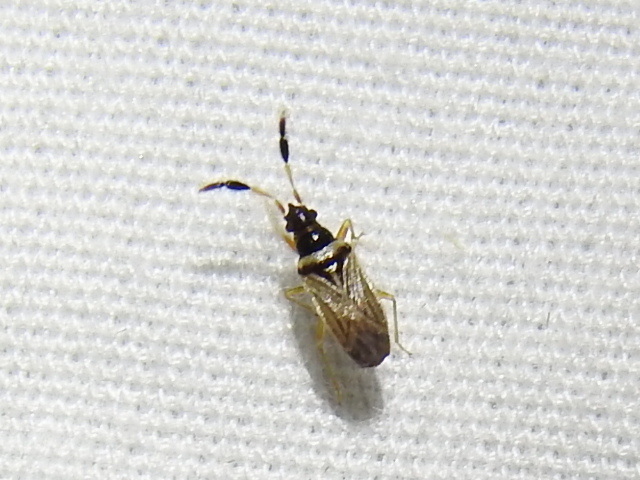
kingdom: Animalia
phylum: Arthropoda
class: Insecta
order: Hemiptera
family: Rhyparochromidae
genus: Ptochiomera
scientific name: Ptochiomera nodosa
